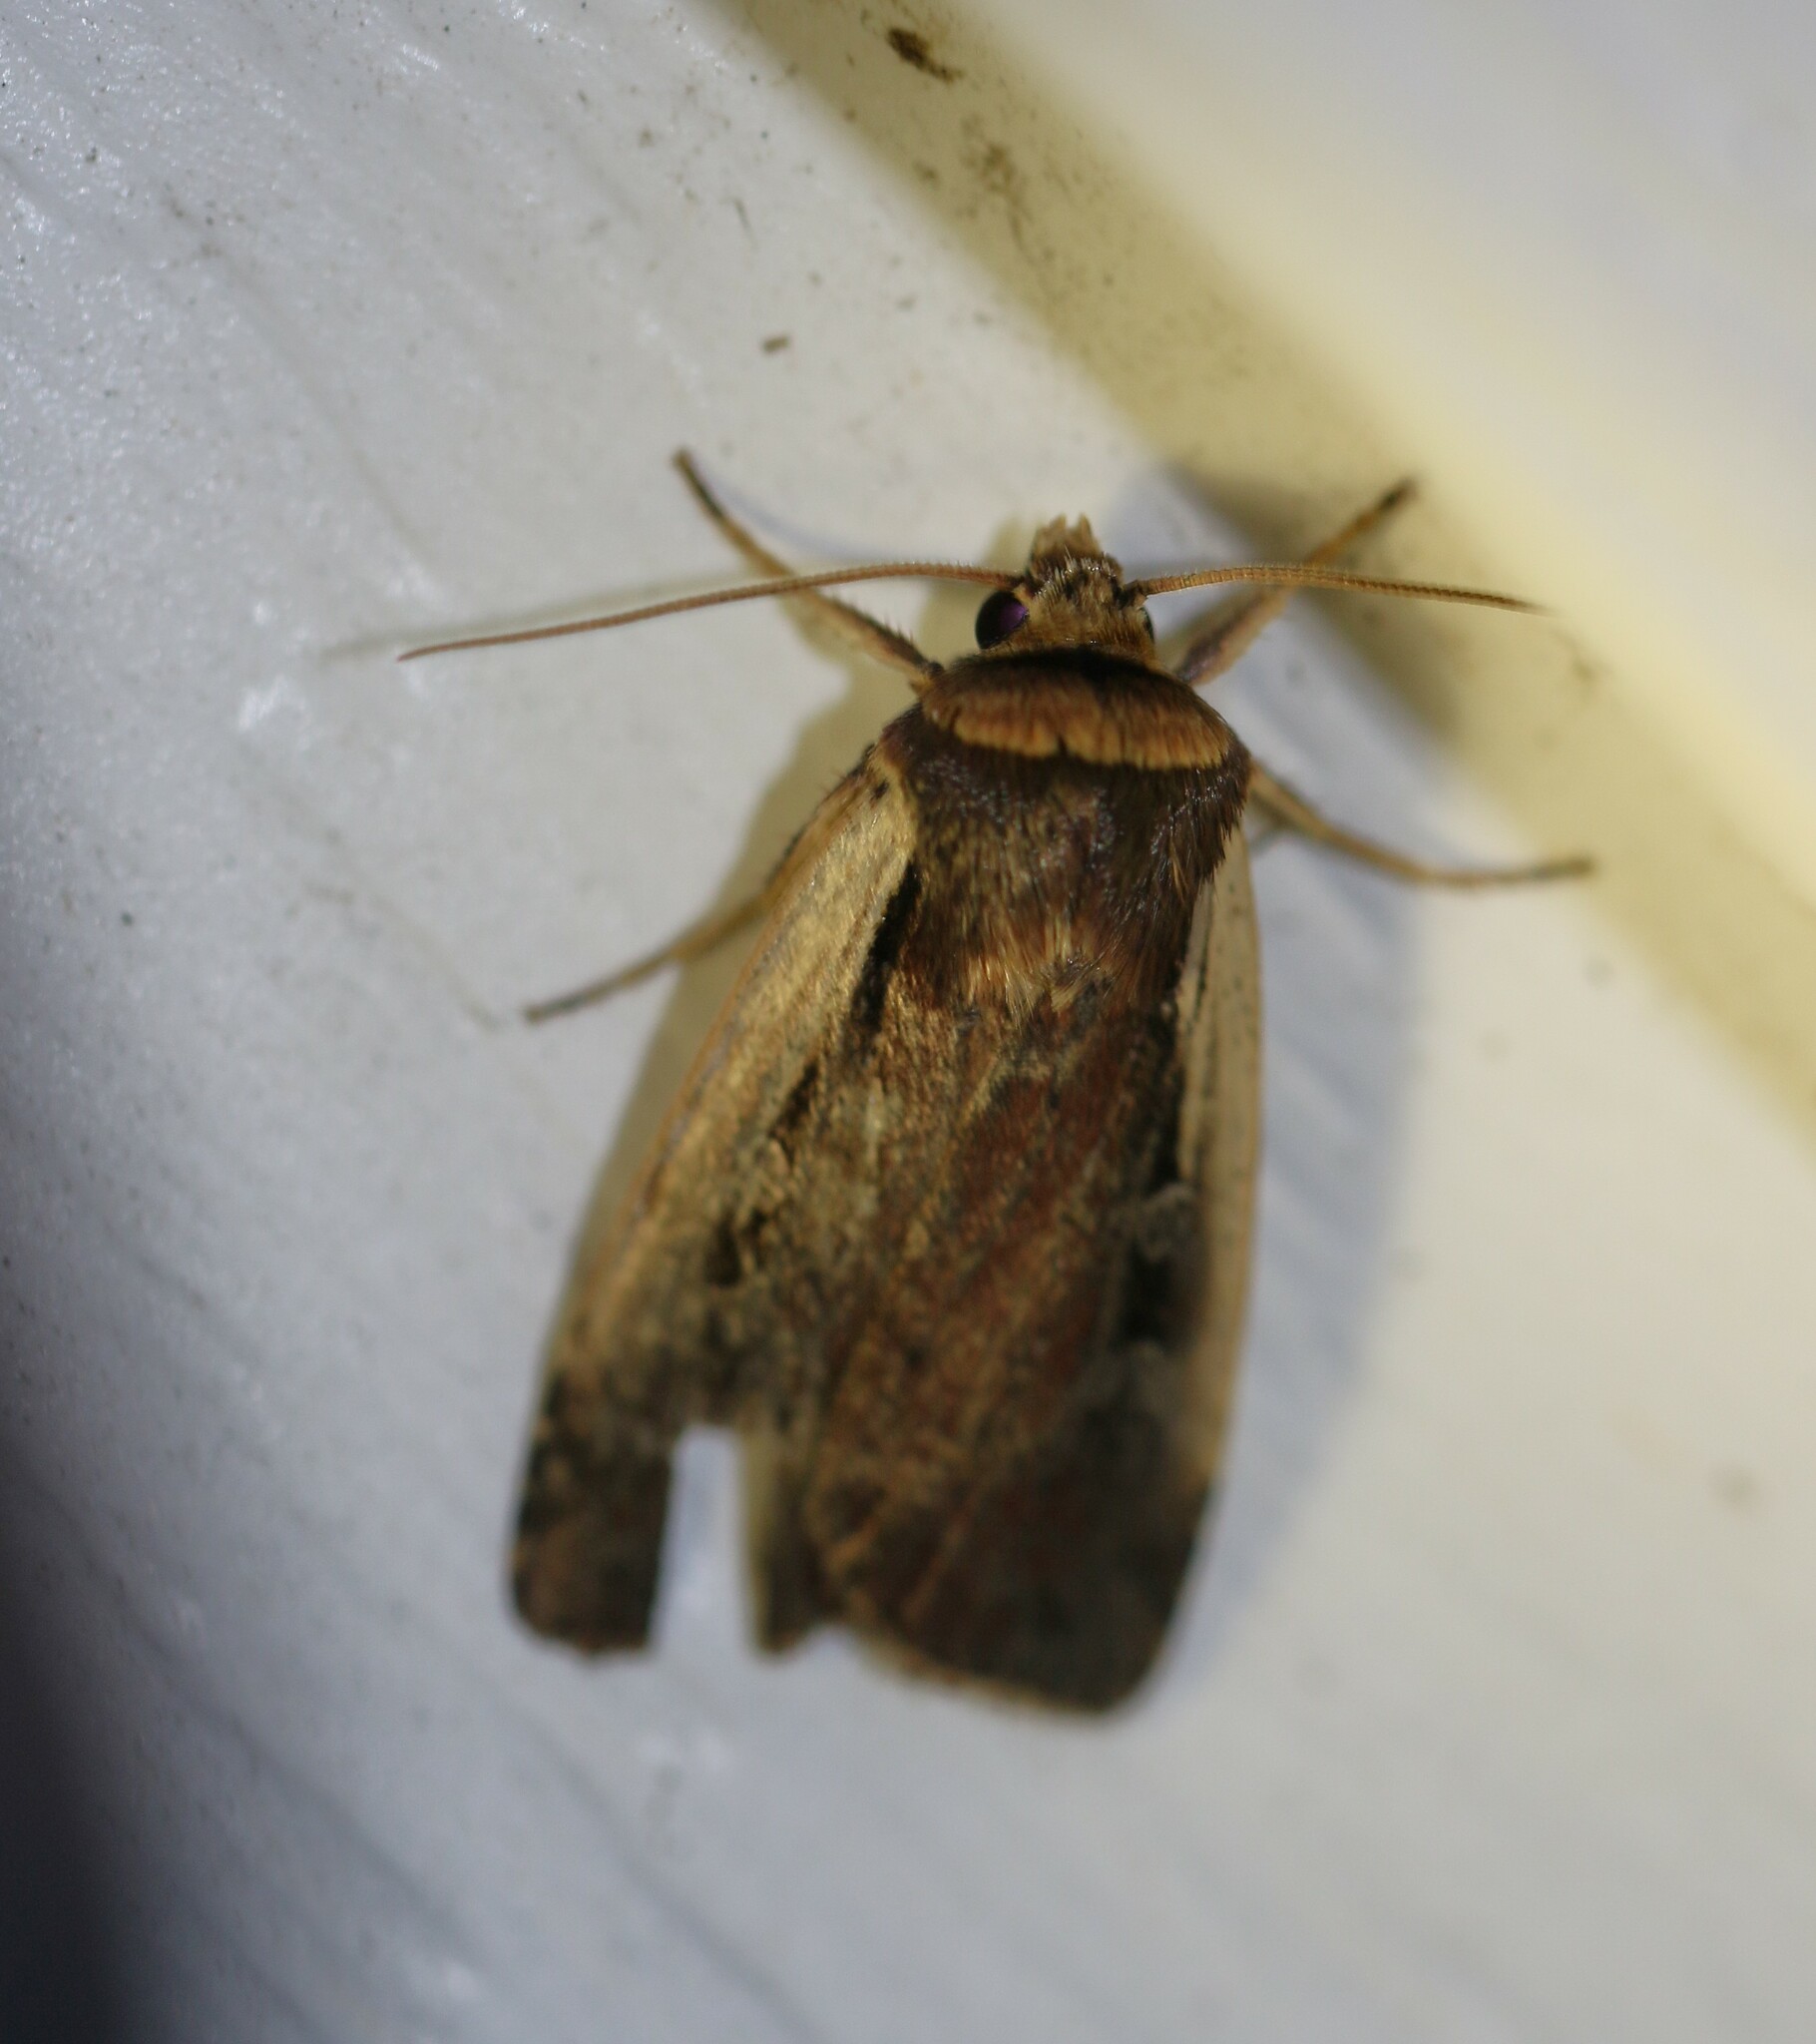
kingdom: Animalia
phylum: Arthropoda
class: Insecta
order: Lepidoptera
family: Noctuidae
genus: Ochropleura
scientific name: Ochropleura implecta
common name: Flame-shouldered dart
